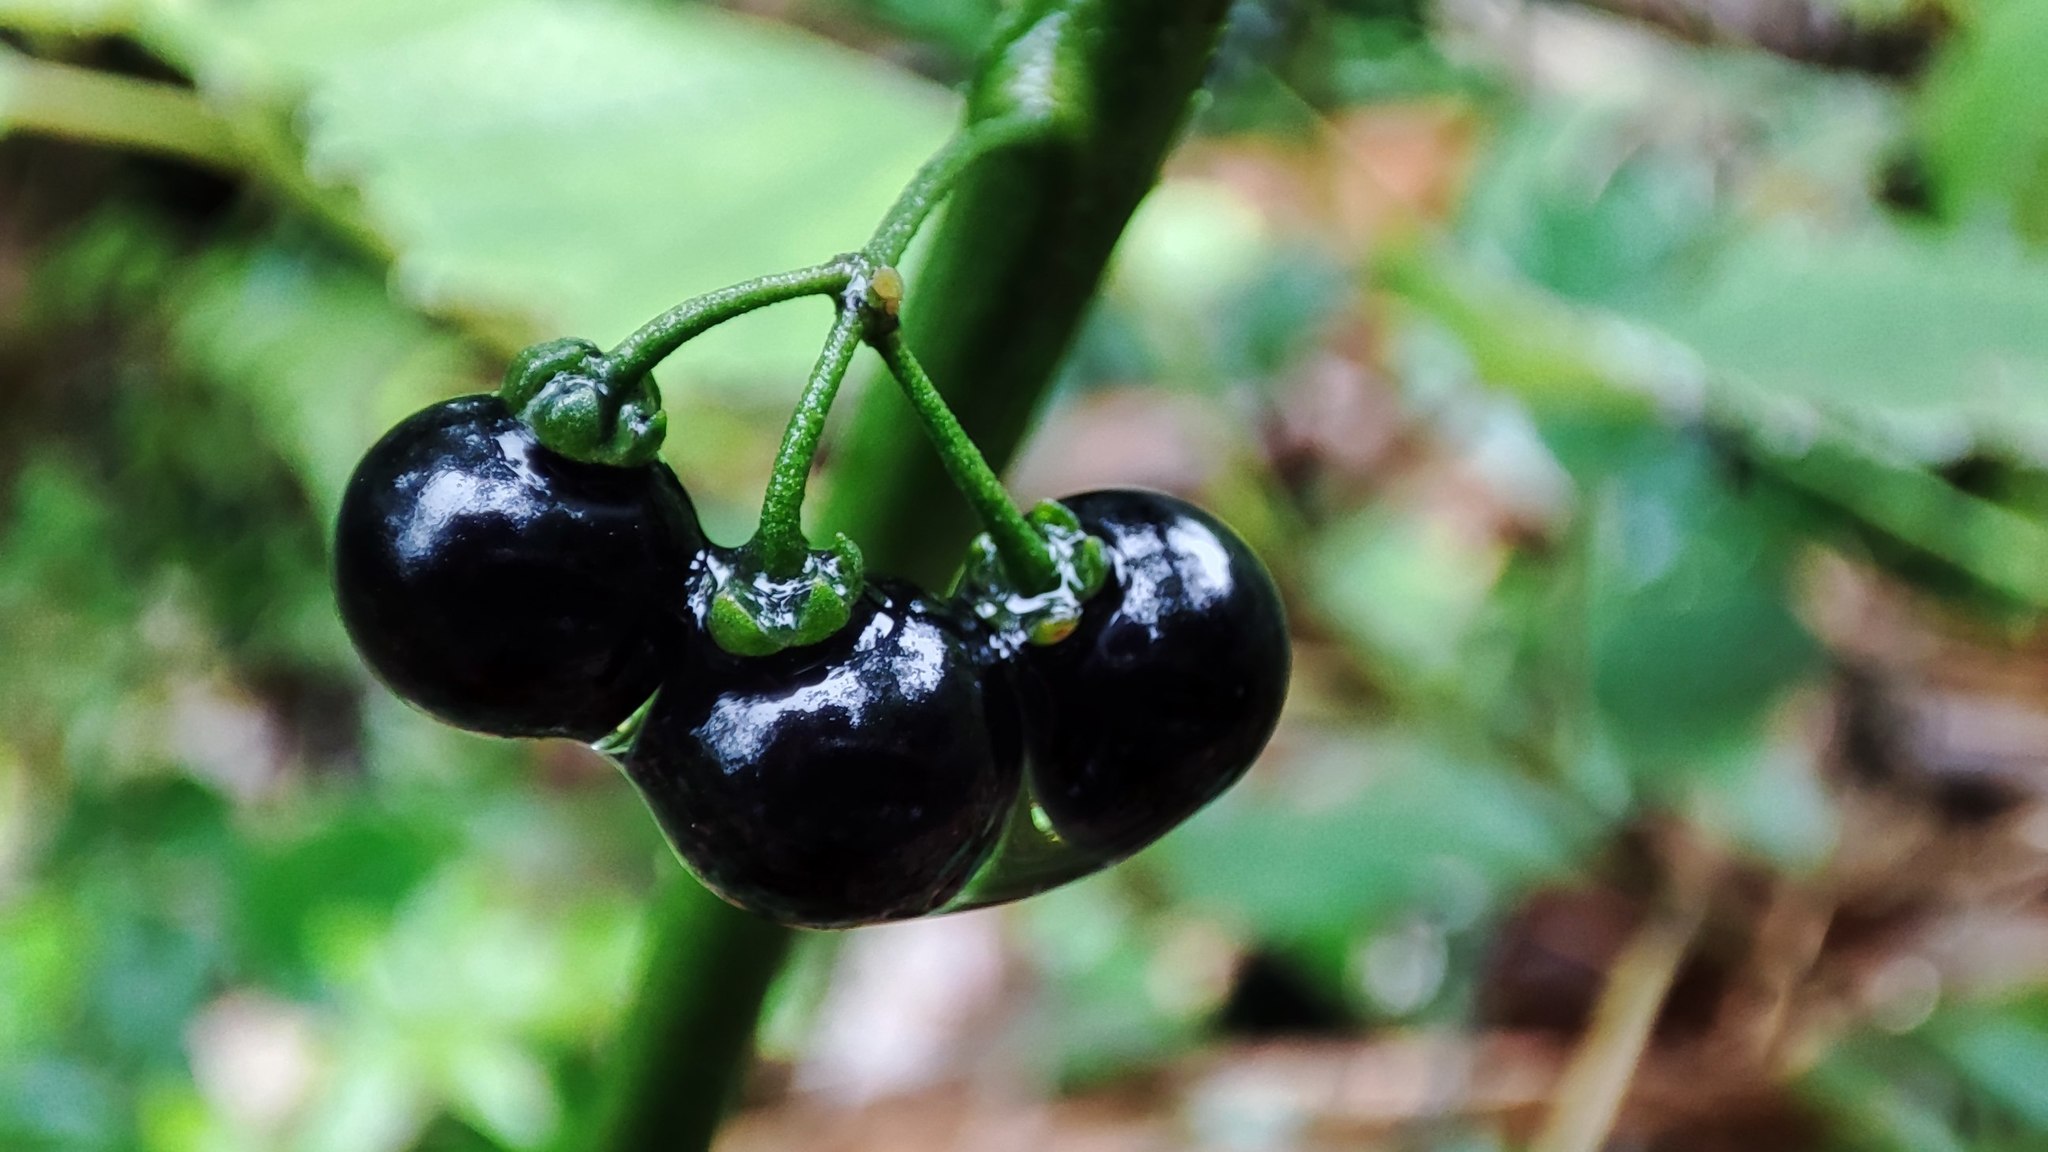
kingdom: Plantae
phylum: Tracheophyta
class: Magnoliopsida
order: Solanales
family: Solanaceae
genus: Solanum
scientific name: Solanum americanum
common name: American black nightshade
